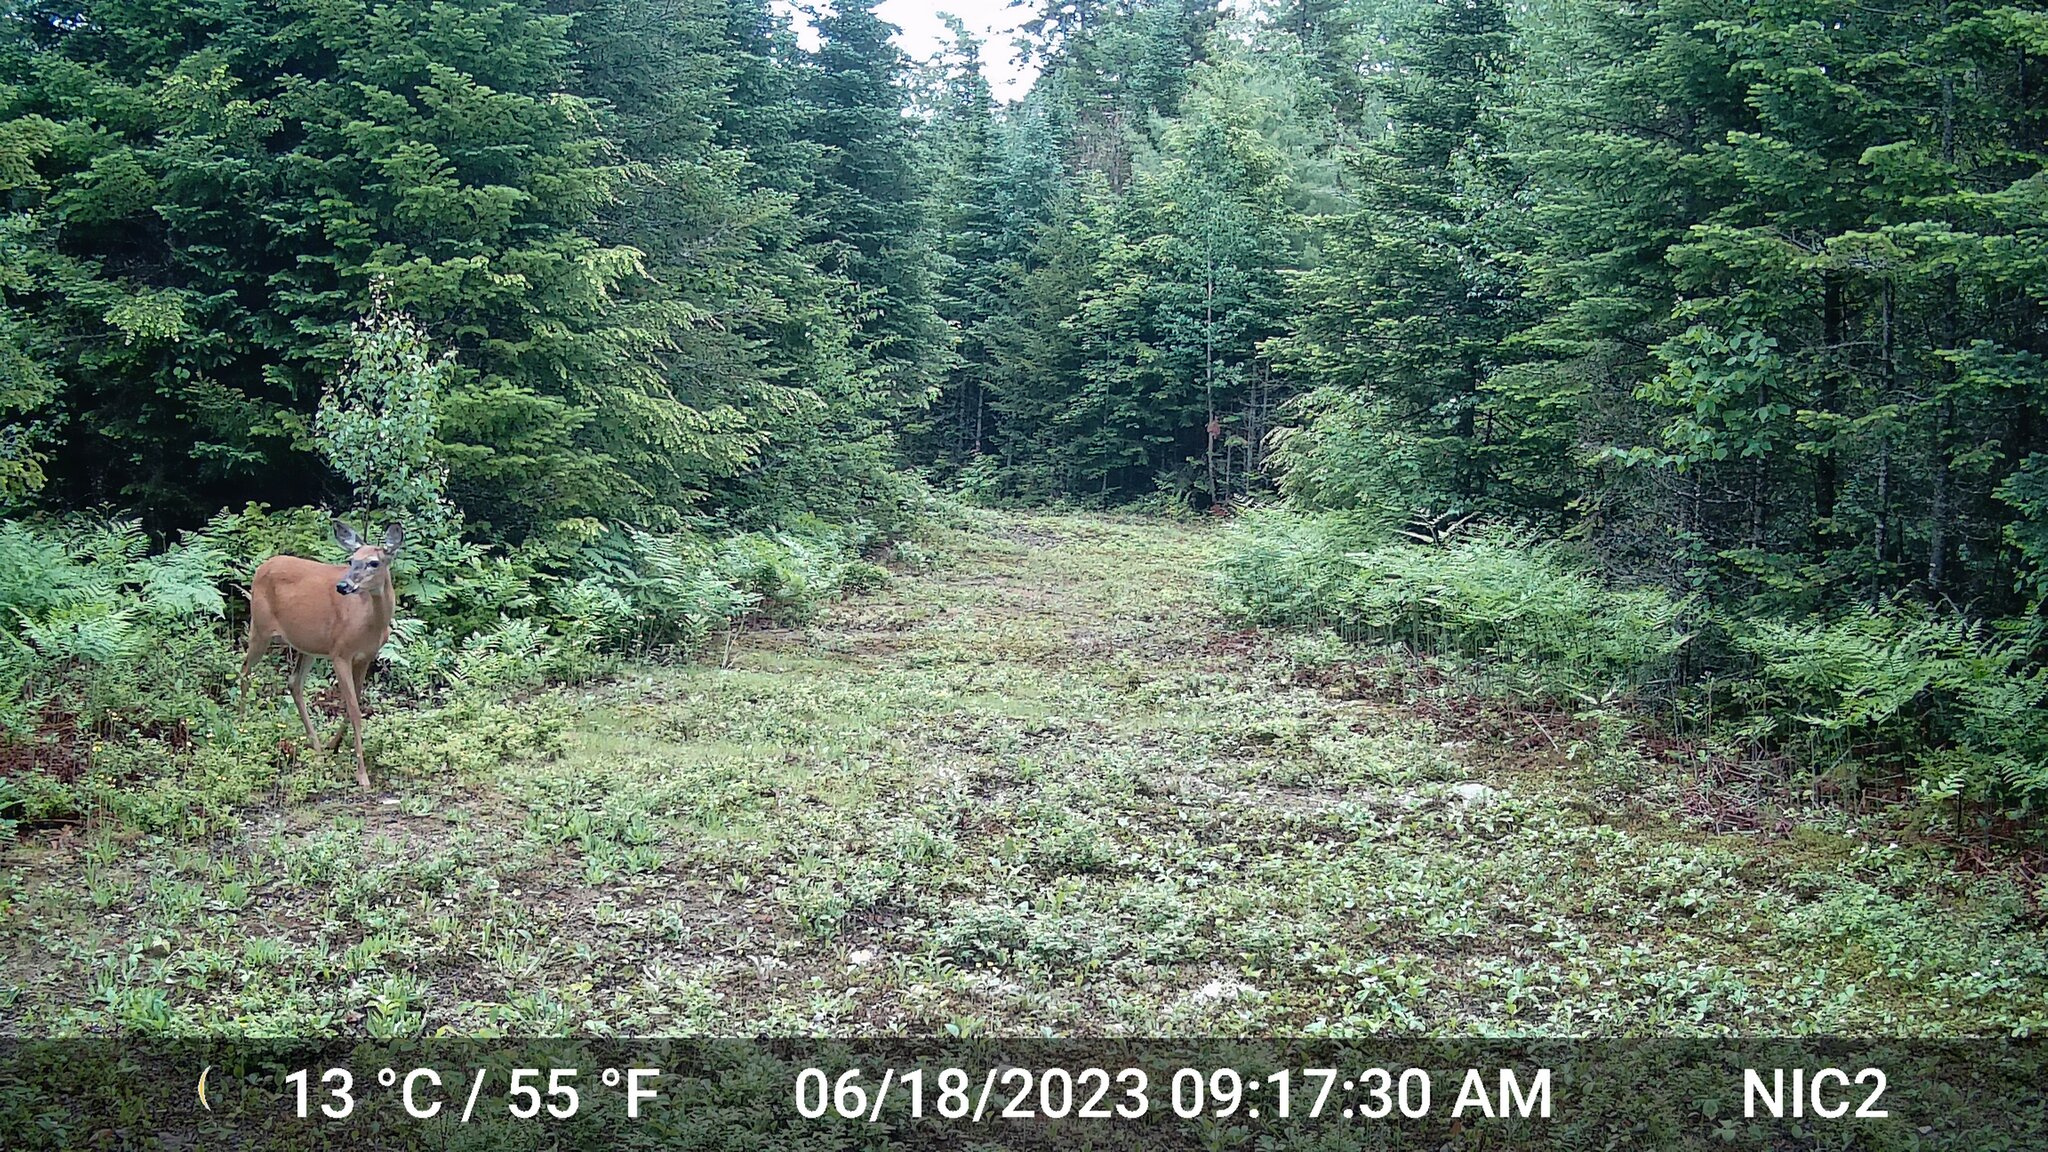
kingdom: Animalia
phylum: Chordata
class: Mammalia
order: Artiodactyla
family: Cervidae
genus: Odocoileus
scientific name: Odocoileus virginianus
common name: White-tailed deer
